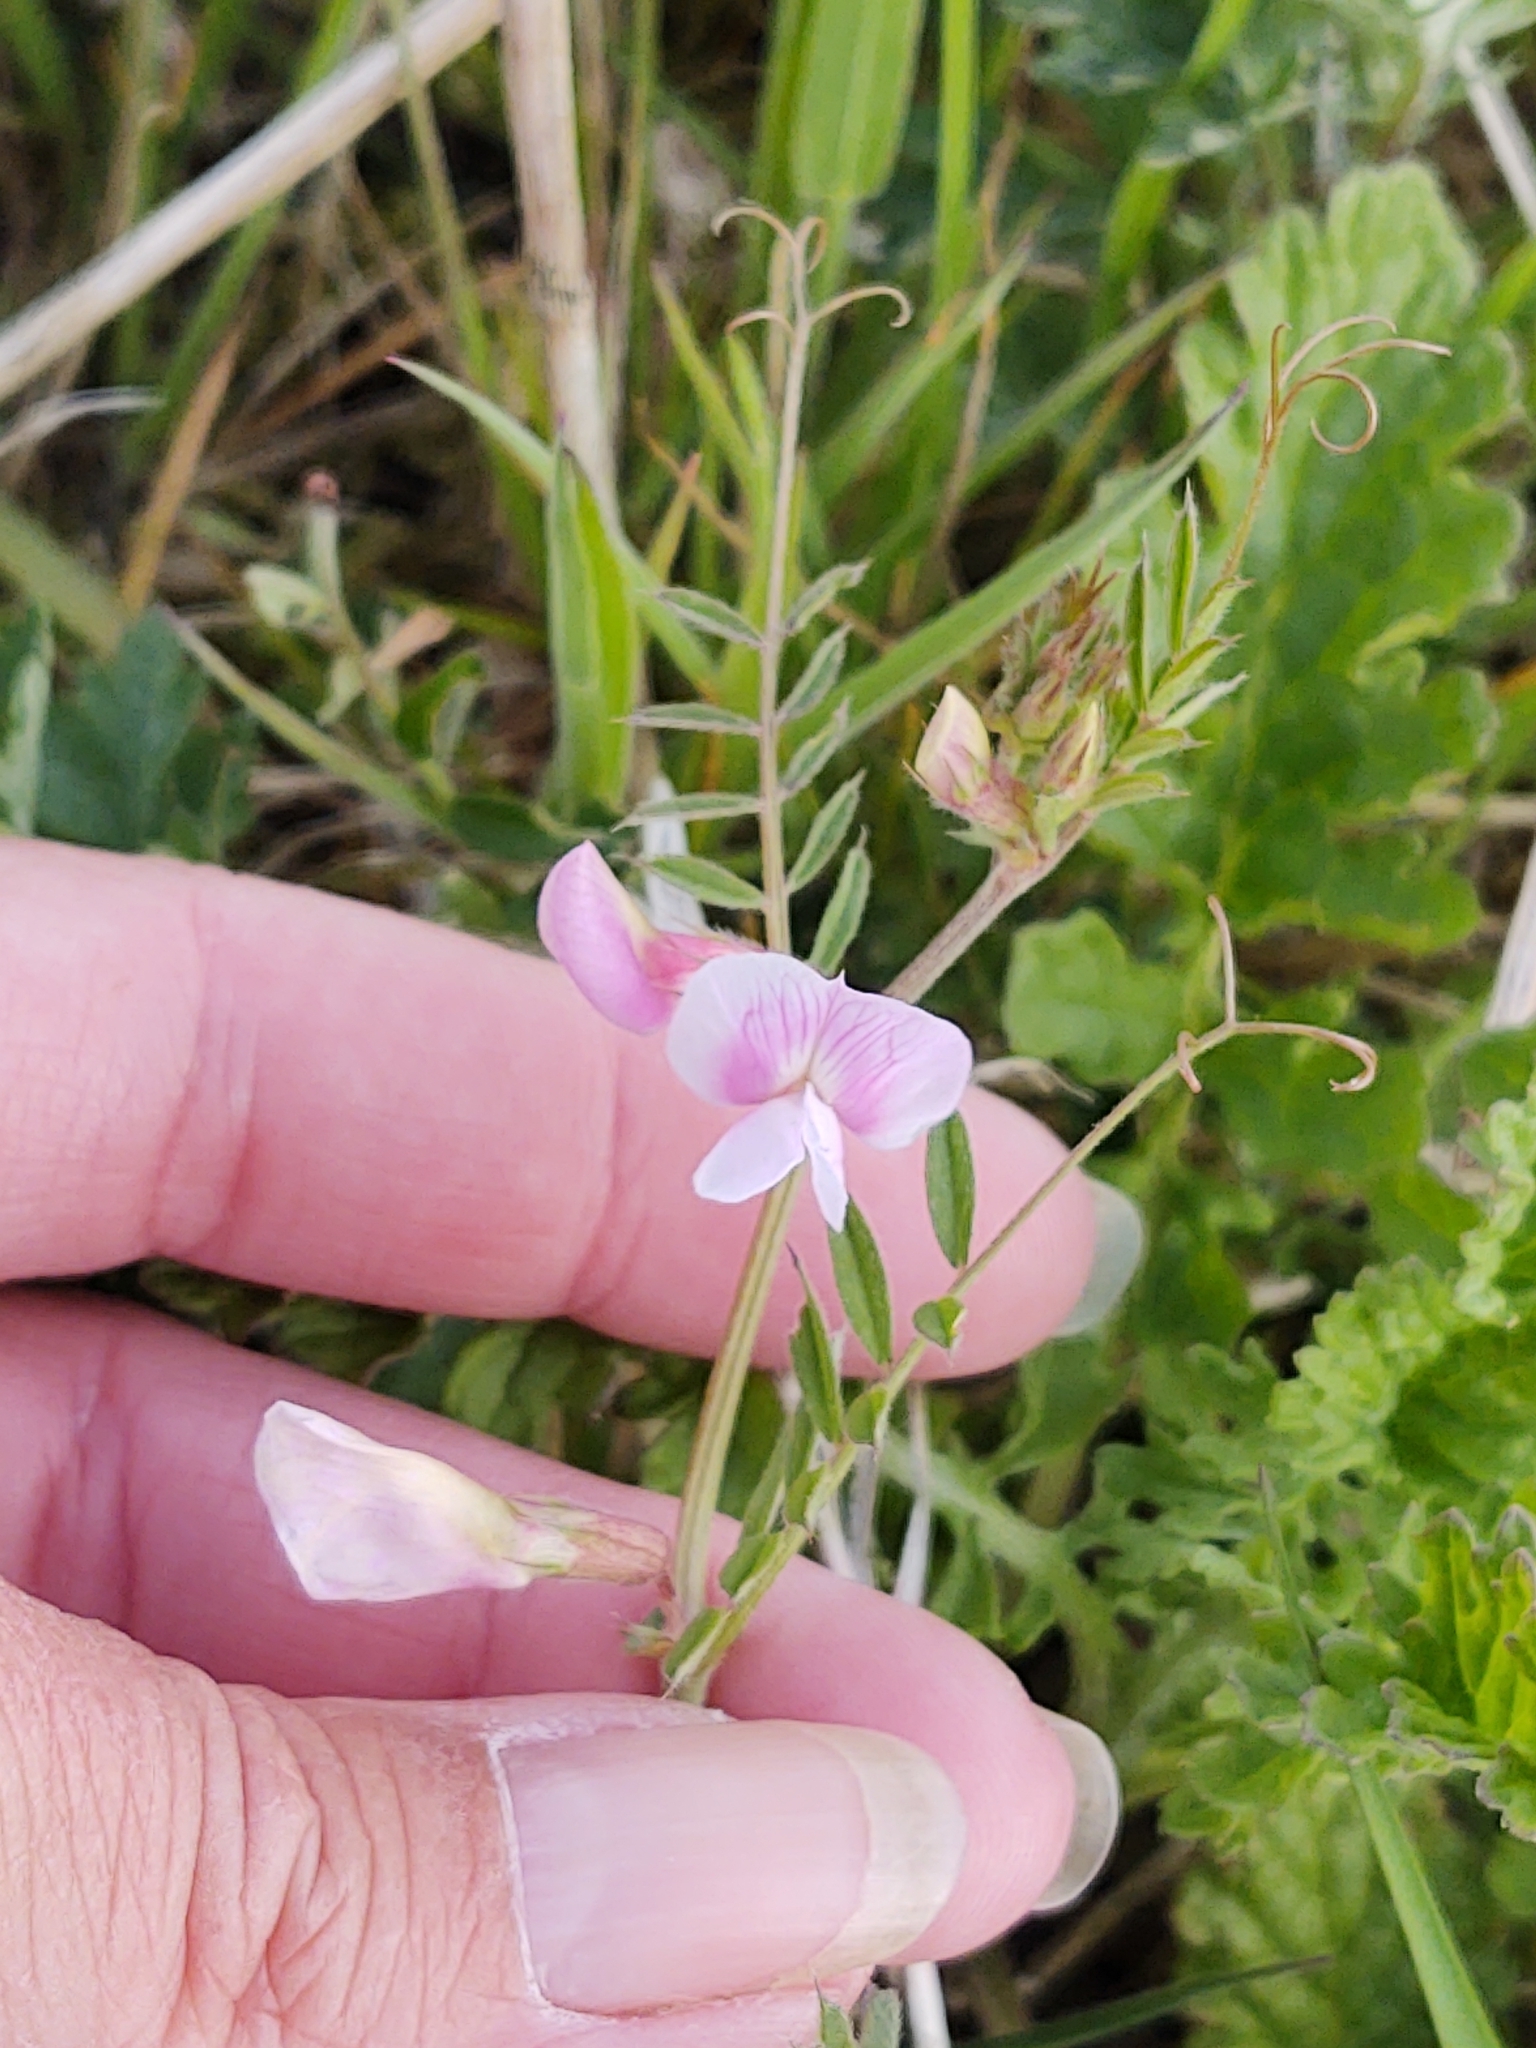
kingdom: Plantae
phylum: Tracheophyta
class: Magnoliopsida
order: Fabales
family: Fabaceae
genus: Vicia
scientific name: Vicia sativa
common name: Garden vetch
